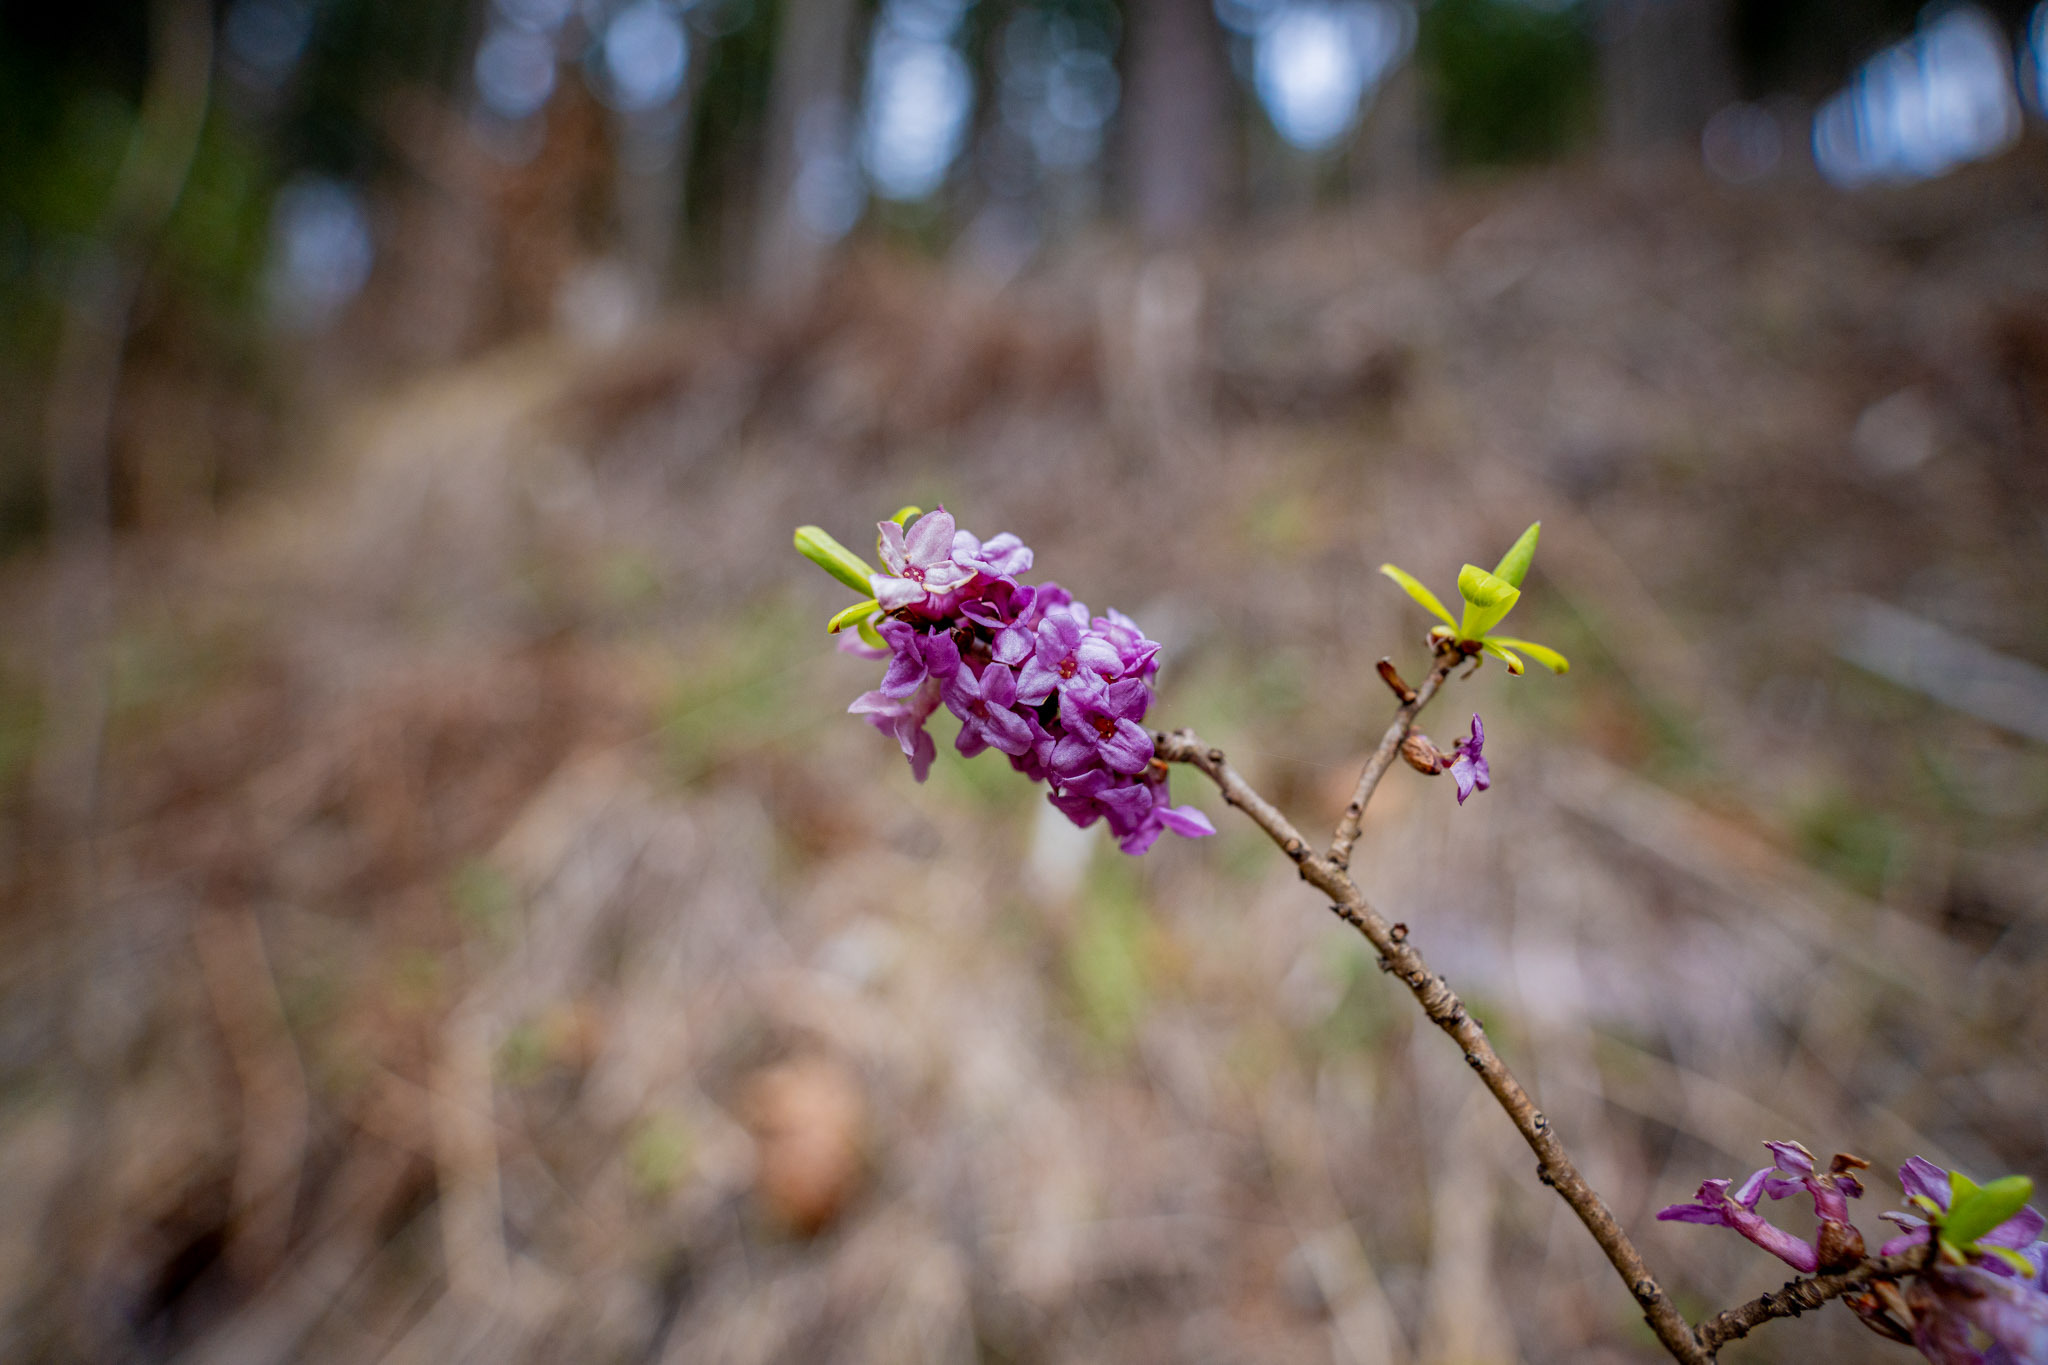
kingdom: Plantae
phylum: Tracheophyta
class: Magnoliopsida
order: Malvales
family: Thymelaeaceae
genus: Daphne
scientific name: Daphne mezereum
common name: Mezereon
